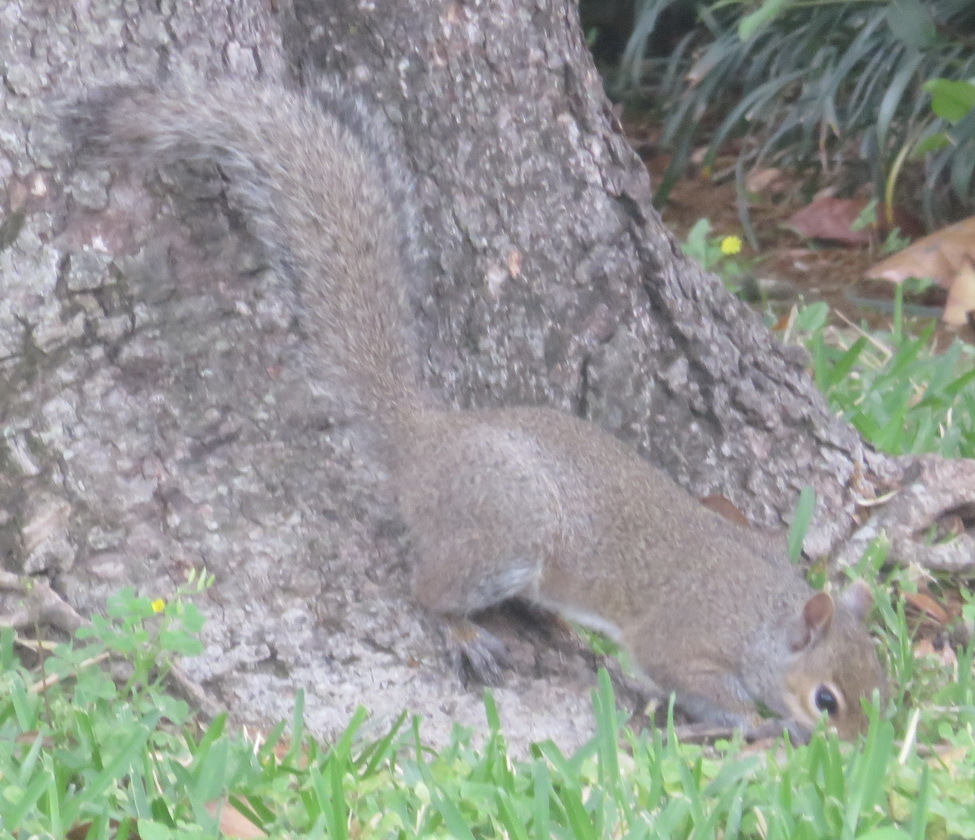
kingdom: Animalia
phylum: Chordata
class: Mammalia
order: Rodentia
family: Sciuridae
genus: Sciurus
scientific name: Sciurus carolinensis
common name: Eastern gray squirrel
